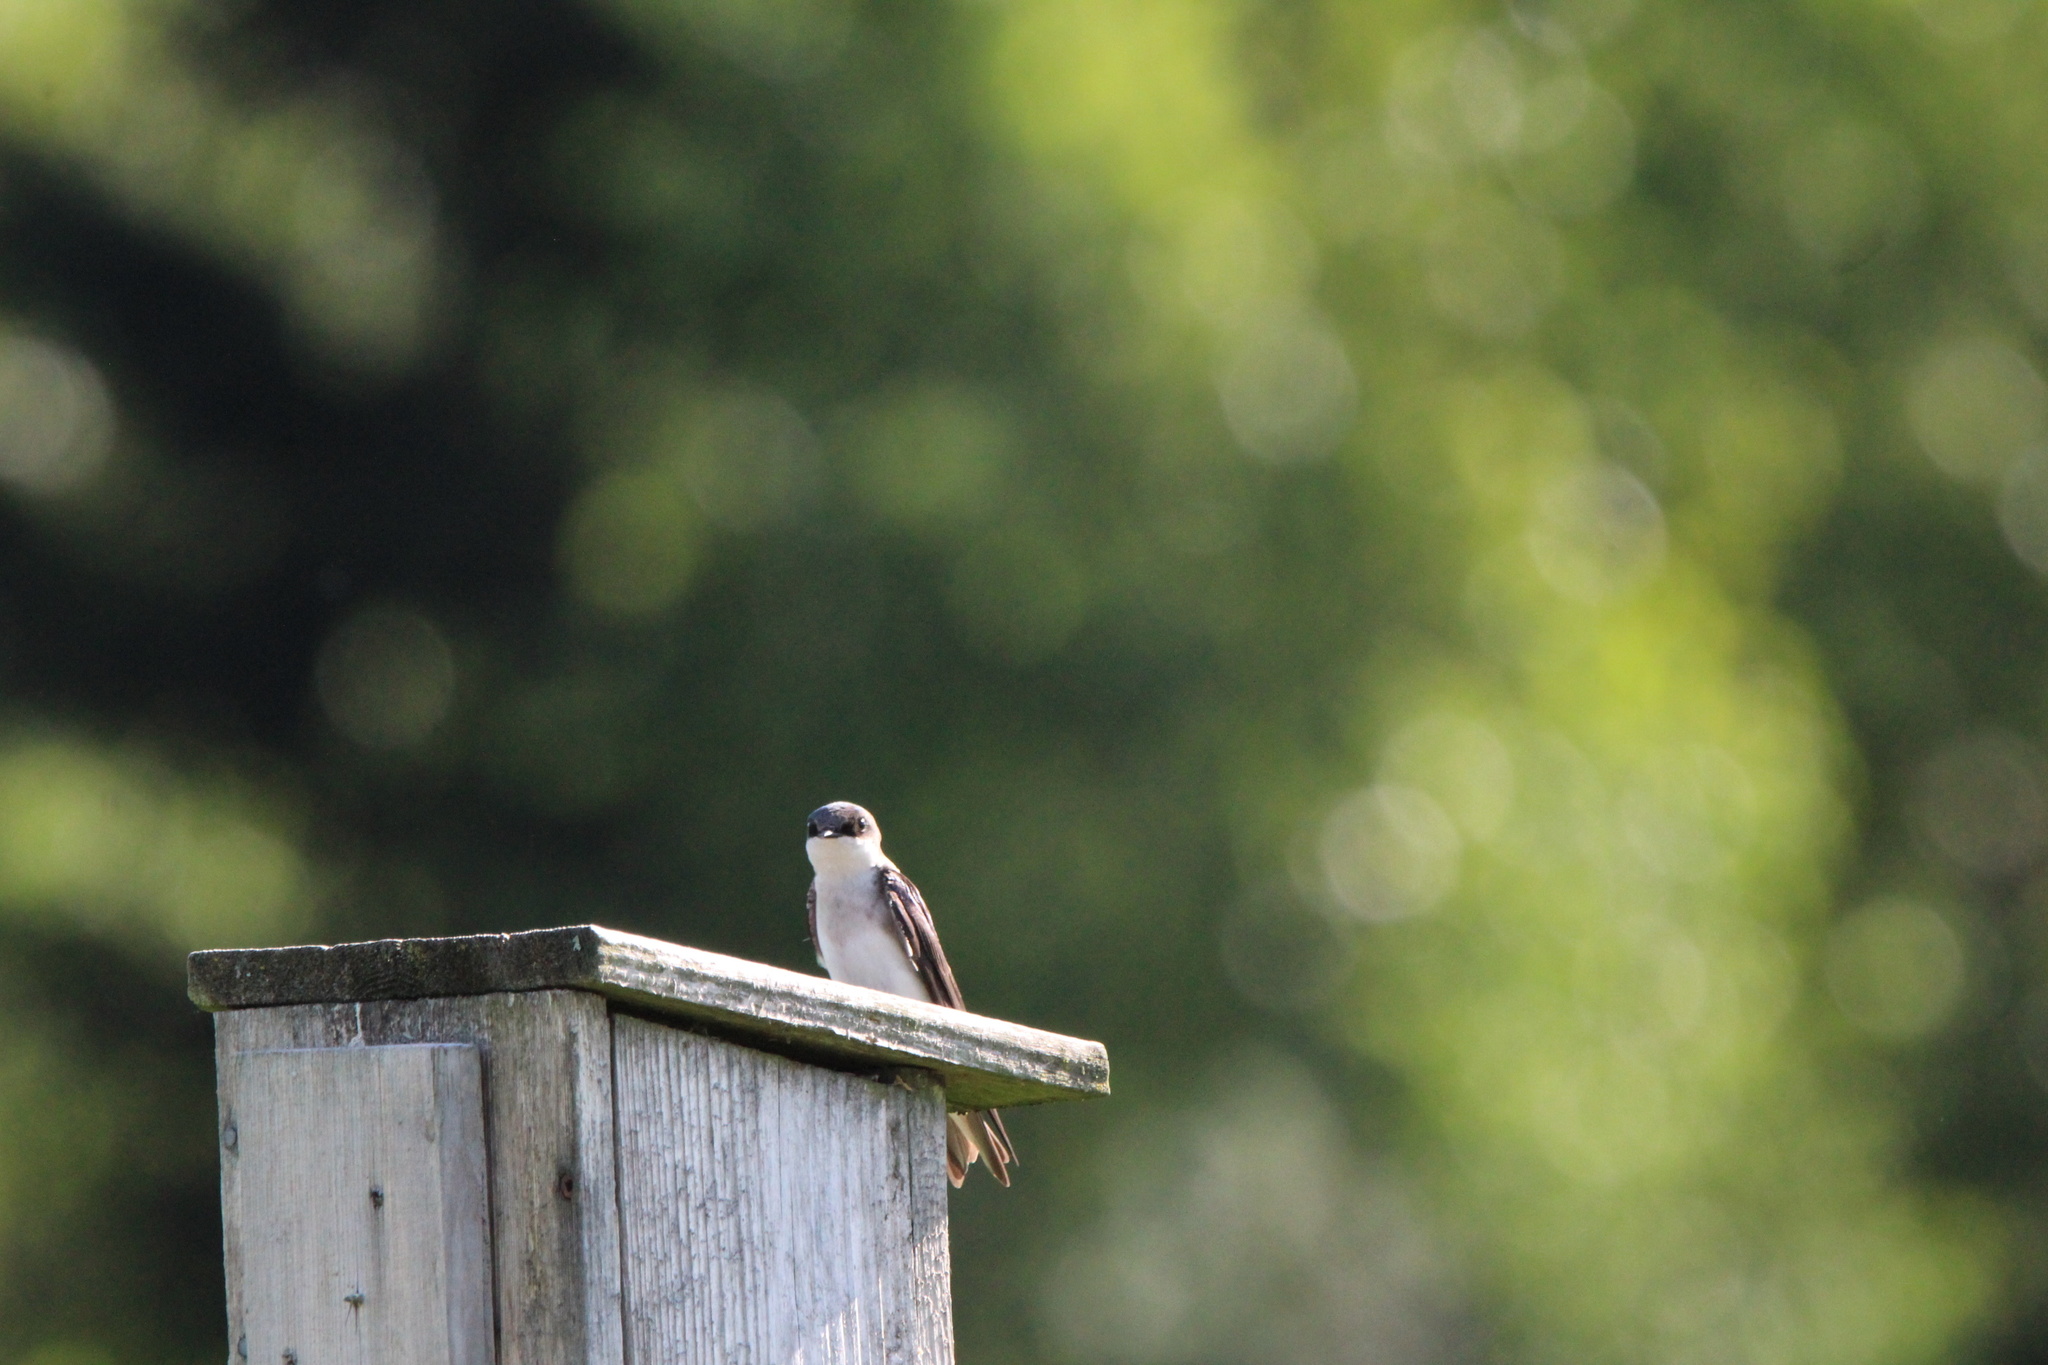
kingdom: Animalia
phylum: Chordata
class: Aves
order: Passeriformes
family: Hirundinidae
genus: Tachycineta
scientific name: Tachycineta bicolor
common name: Tree swallow
